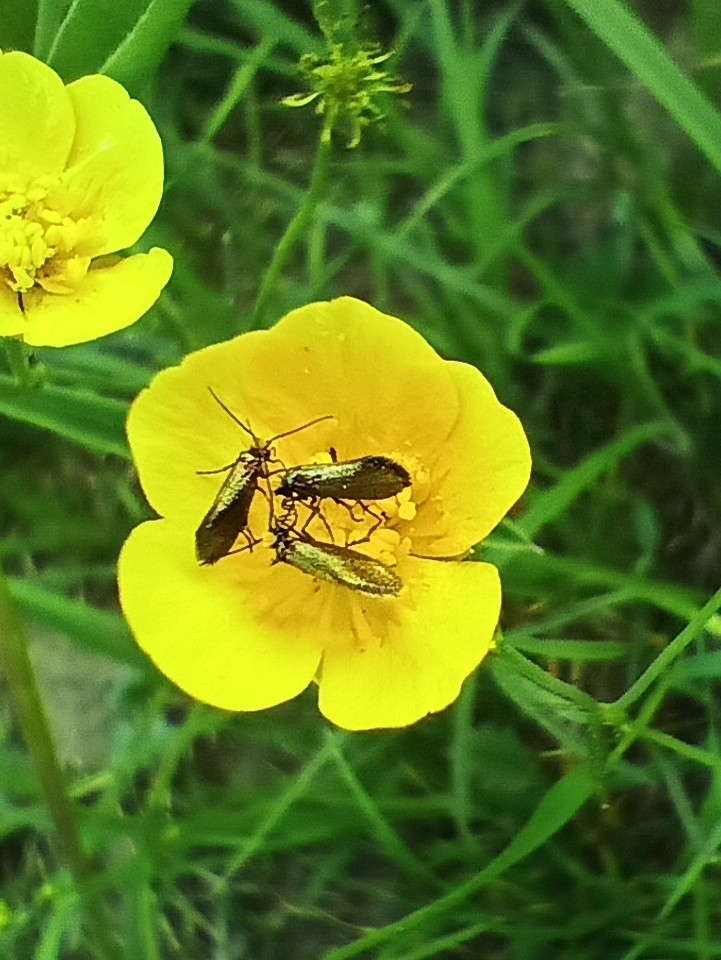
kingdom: Animalia
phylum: Arthropoda
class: Insecta
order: Lepidoptera
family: Micropterigidae
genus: Micropterix
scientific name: Micropterix calthella
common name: Plain gold
